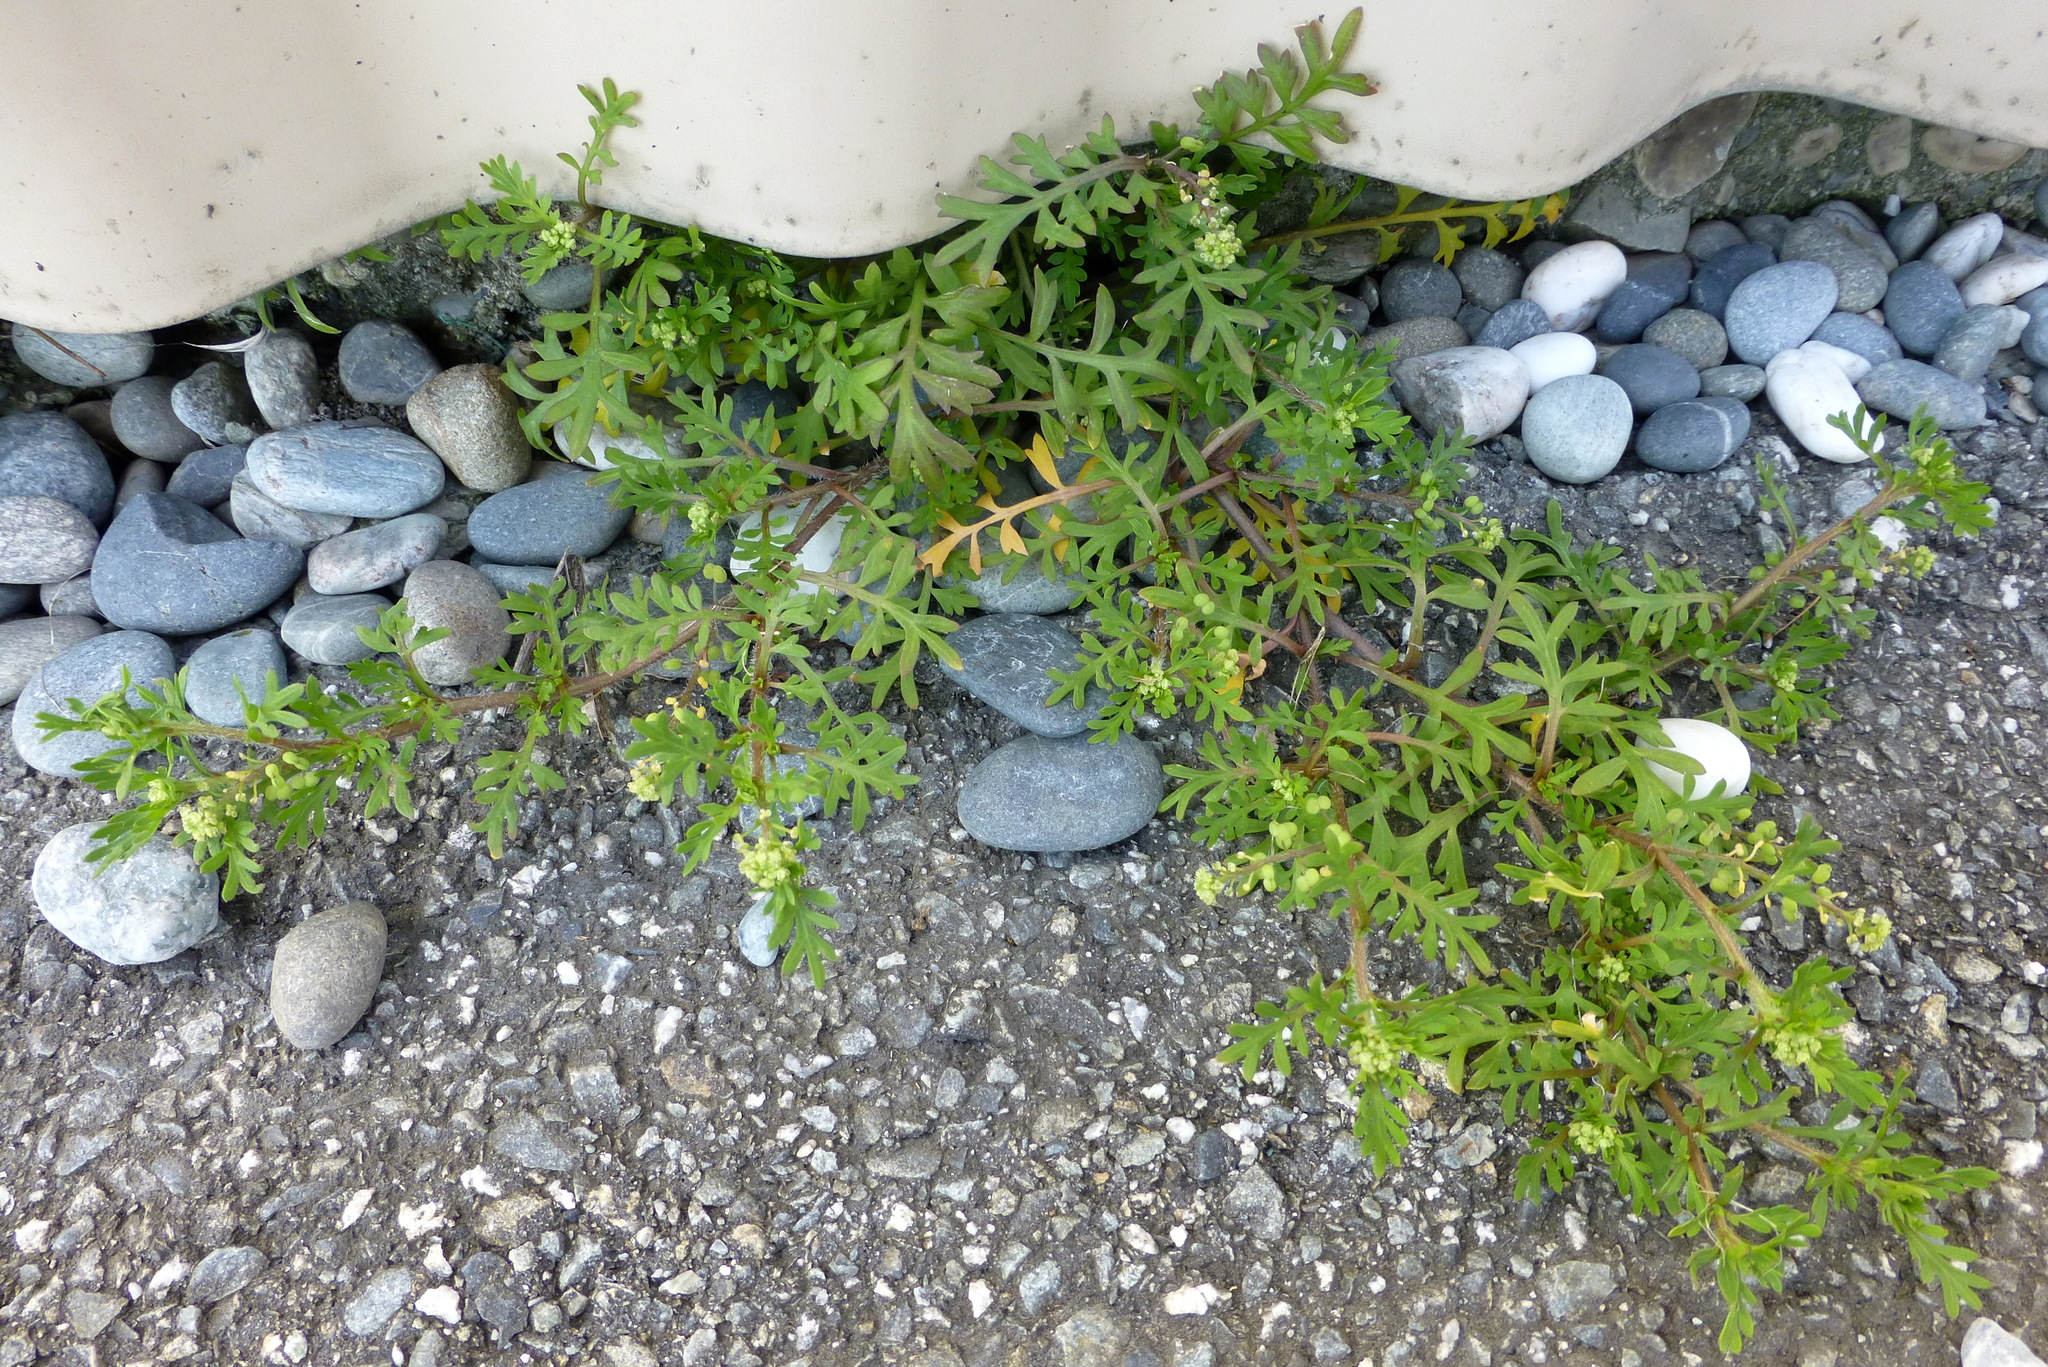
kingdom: Plantae
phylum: Tracheophyta
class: Magnoliopsida
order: Brassicales
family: Brassicaceae
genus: Lepidium
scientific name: Lepidium didymum
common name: Lesser swinecress
